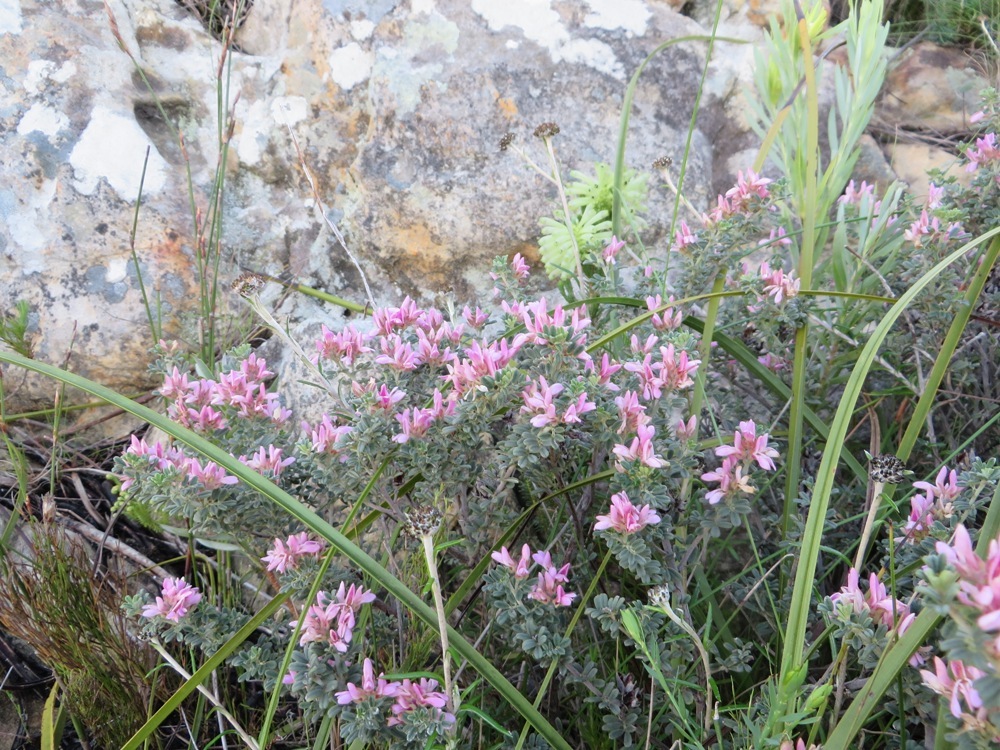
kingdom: Plantae
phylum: Tracheophyta
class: Magnoliopsida
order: Fabales
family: Fabaceae
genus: Indigofera
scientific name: Indigofera brachystachya
